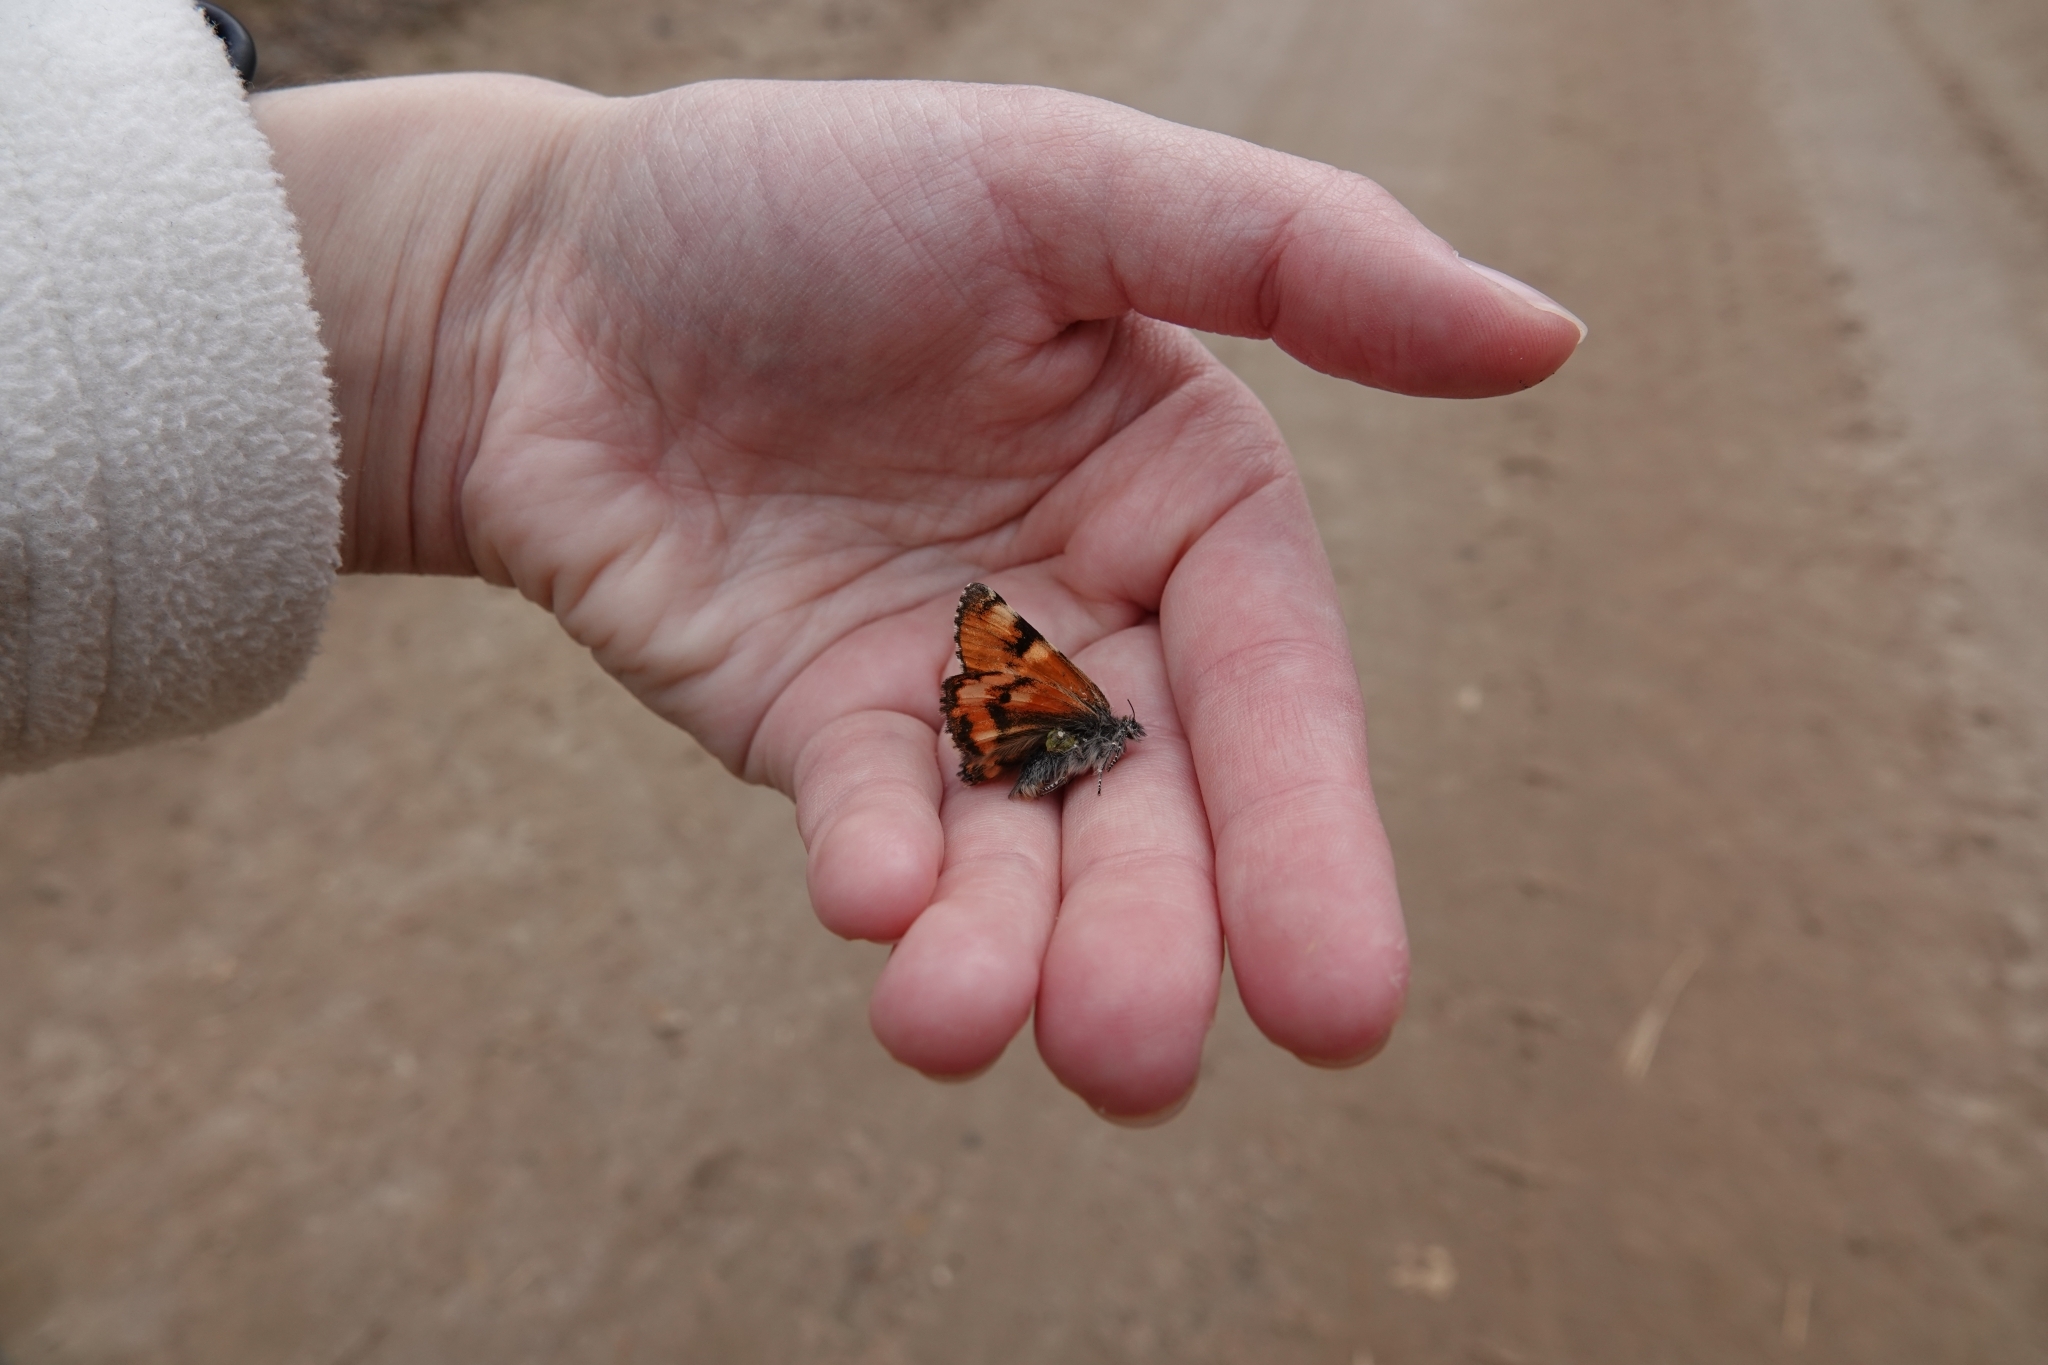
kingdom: Animalia
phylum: Arthropoda
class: Insecta
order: Lepidoptera
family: Geometridae
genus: Archiearis
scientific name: Archiearis parthenias
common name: Orange underwing
